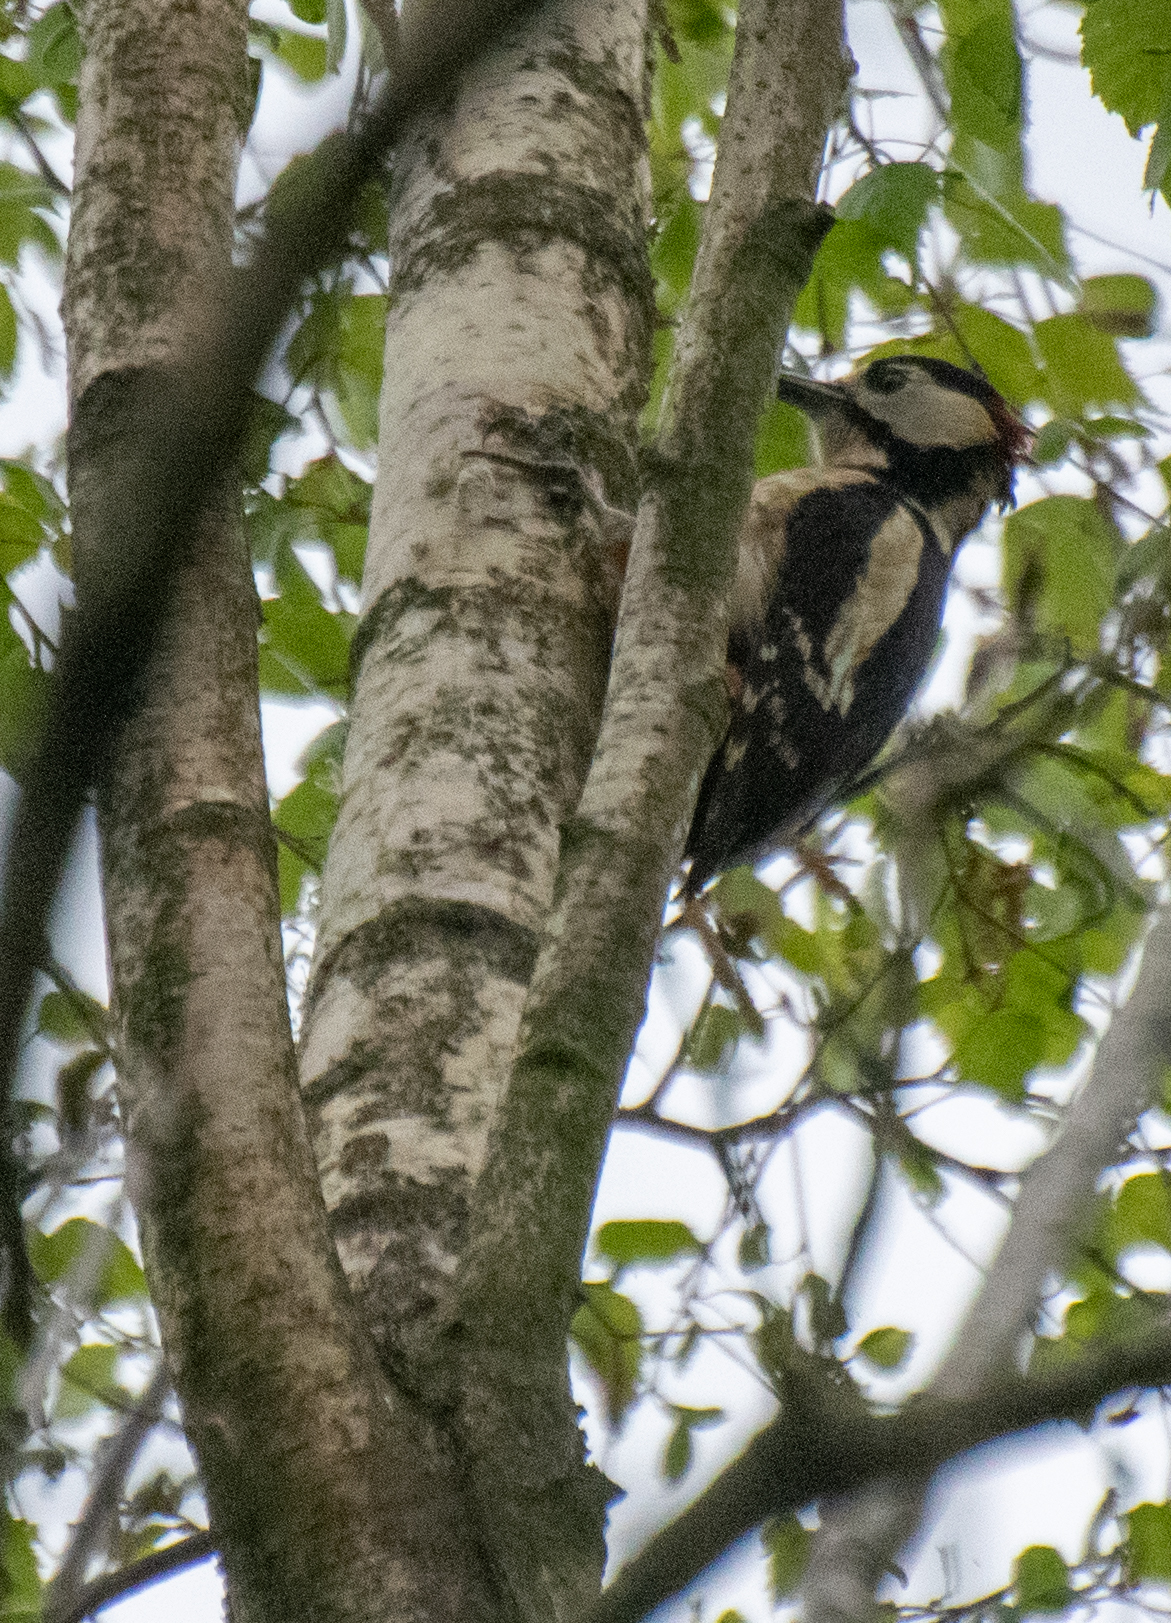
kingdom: Animalia
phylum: Chordata
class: Aves
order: Piciformes
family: Picidae
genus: Dendrocopos
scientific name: Dendrocopos major
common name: Great spotted woodpecker
